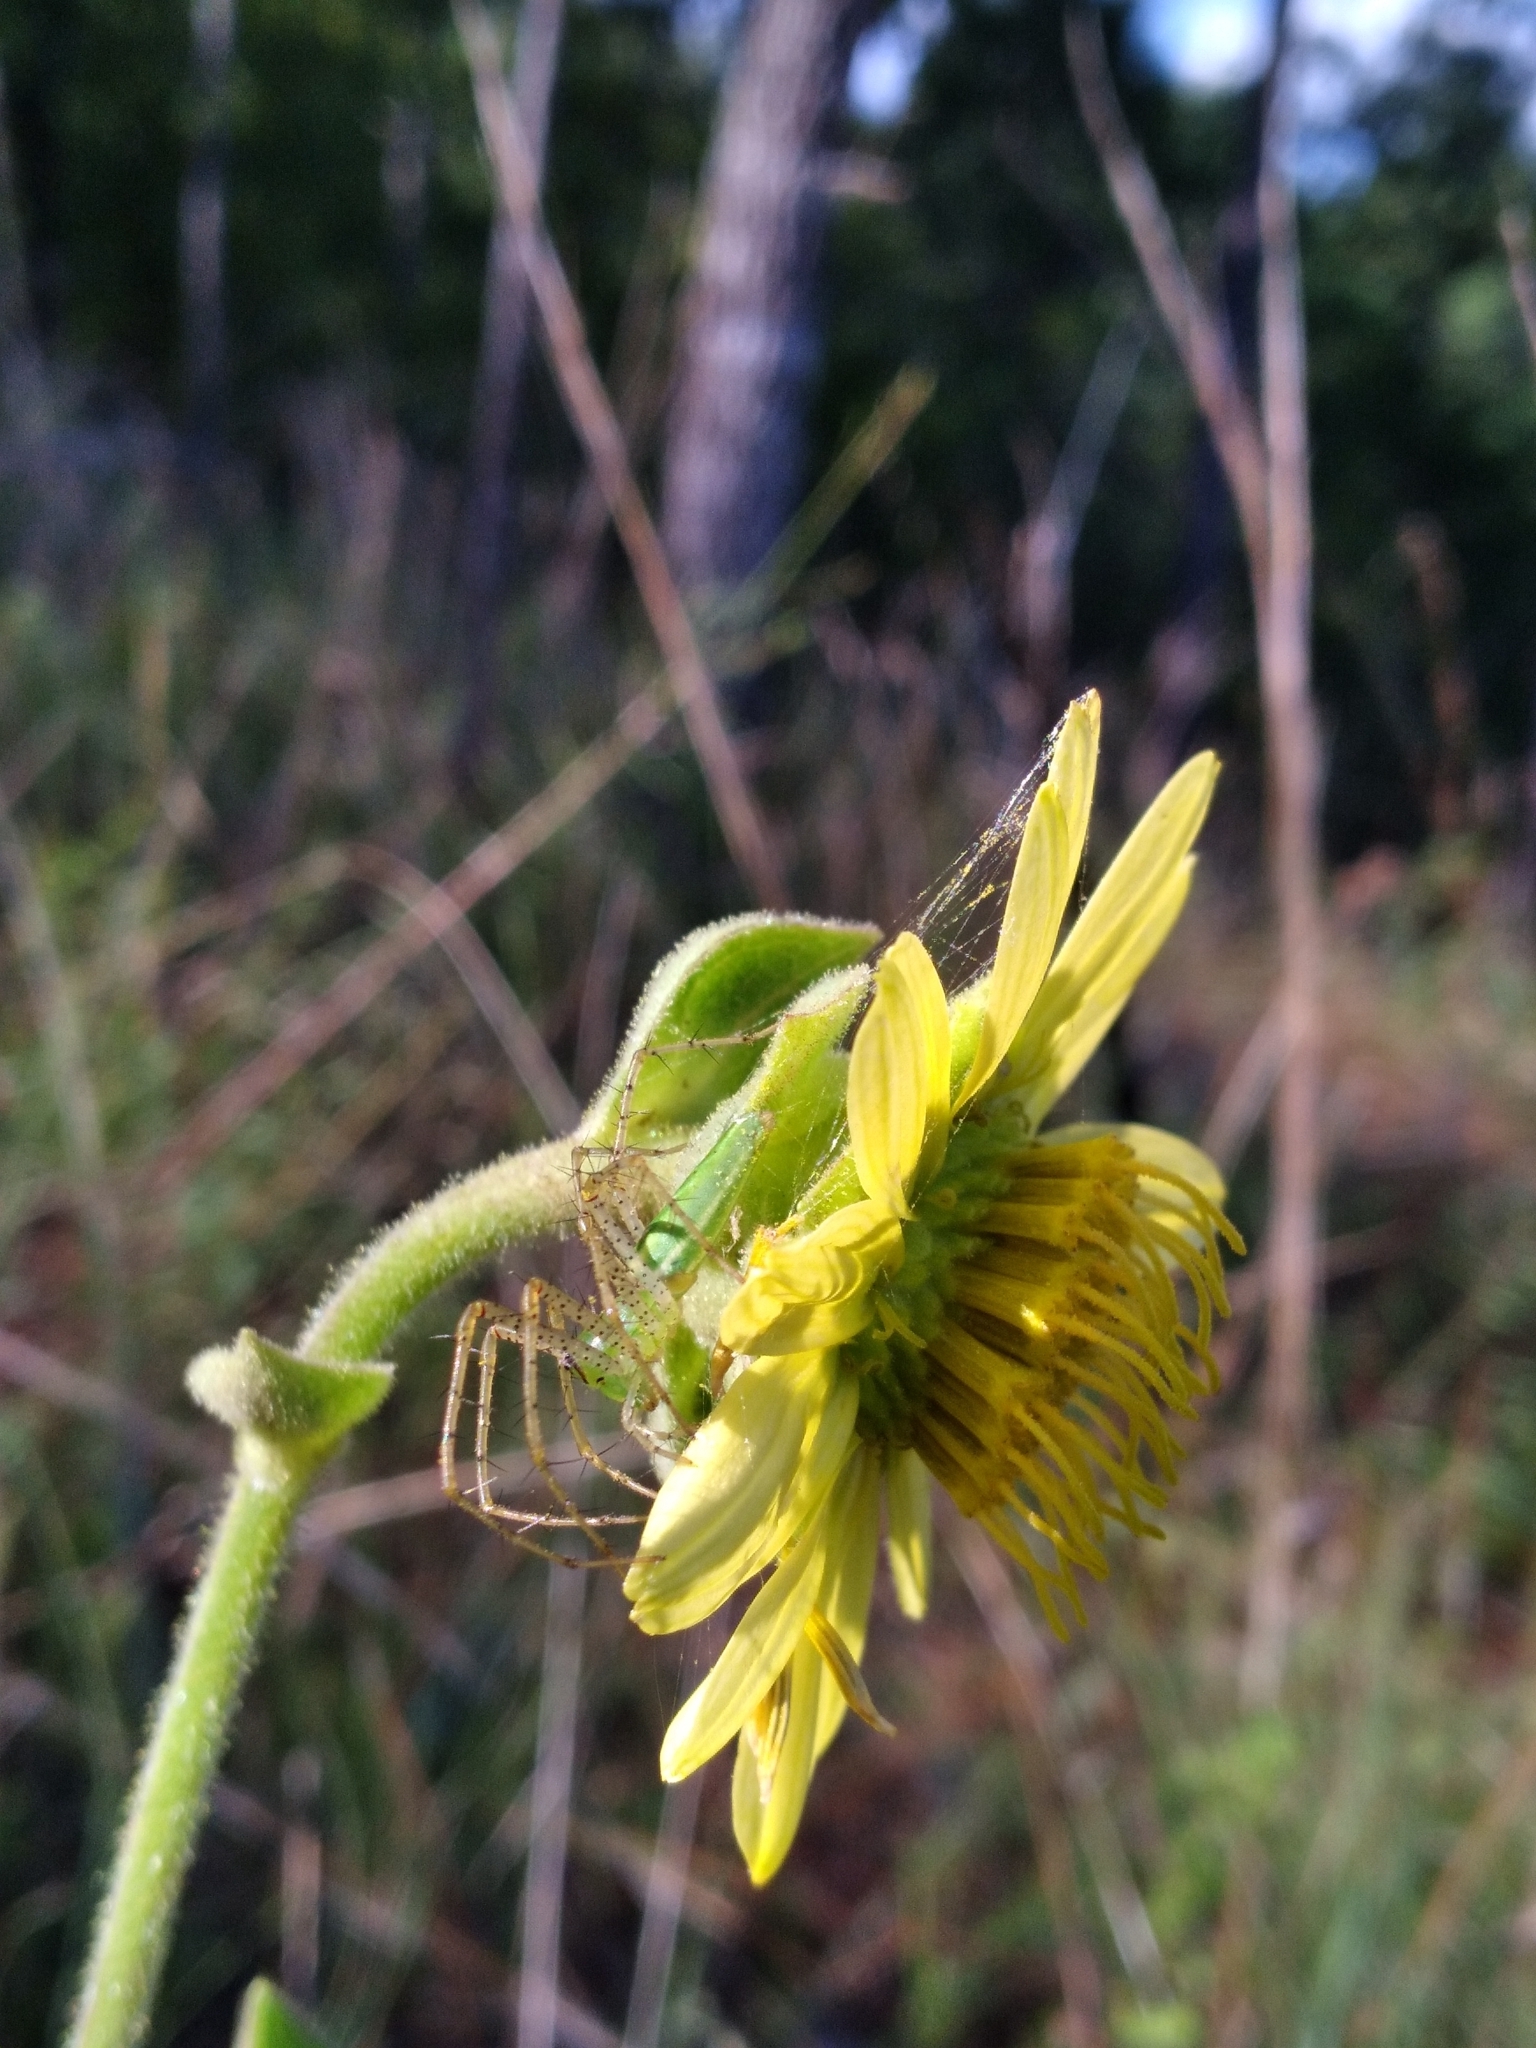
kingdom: Plantae
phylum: Tracheophyta
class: Magnoliopsida
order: Asterales
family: Asteraceae
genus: Silphium
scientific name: Silphium glutinosum
